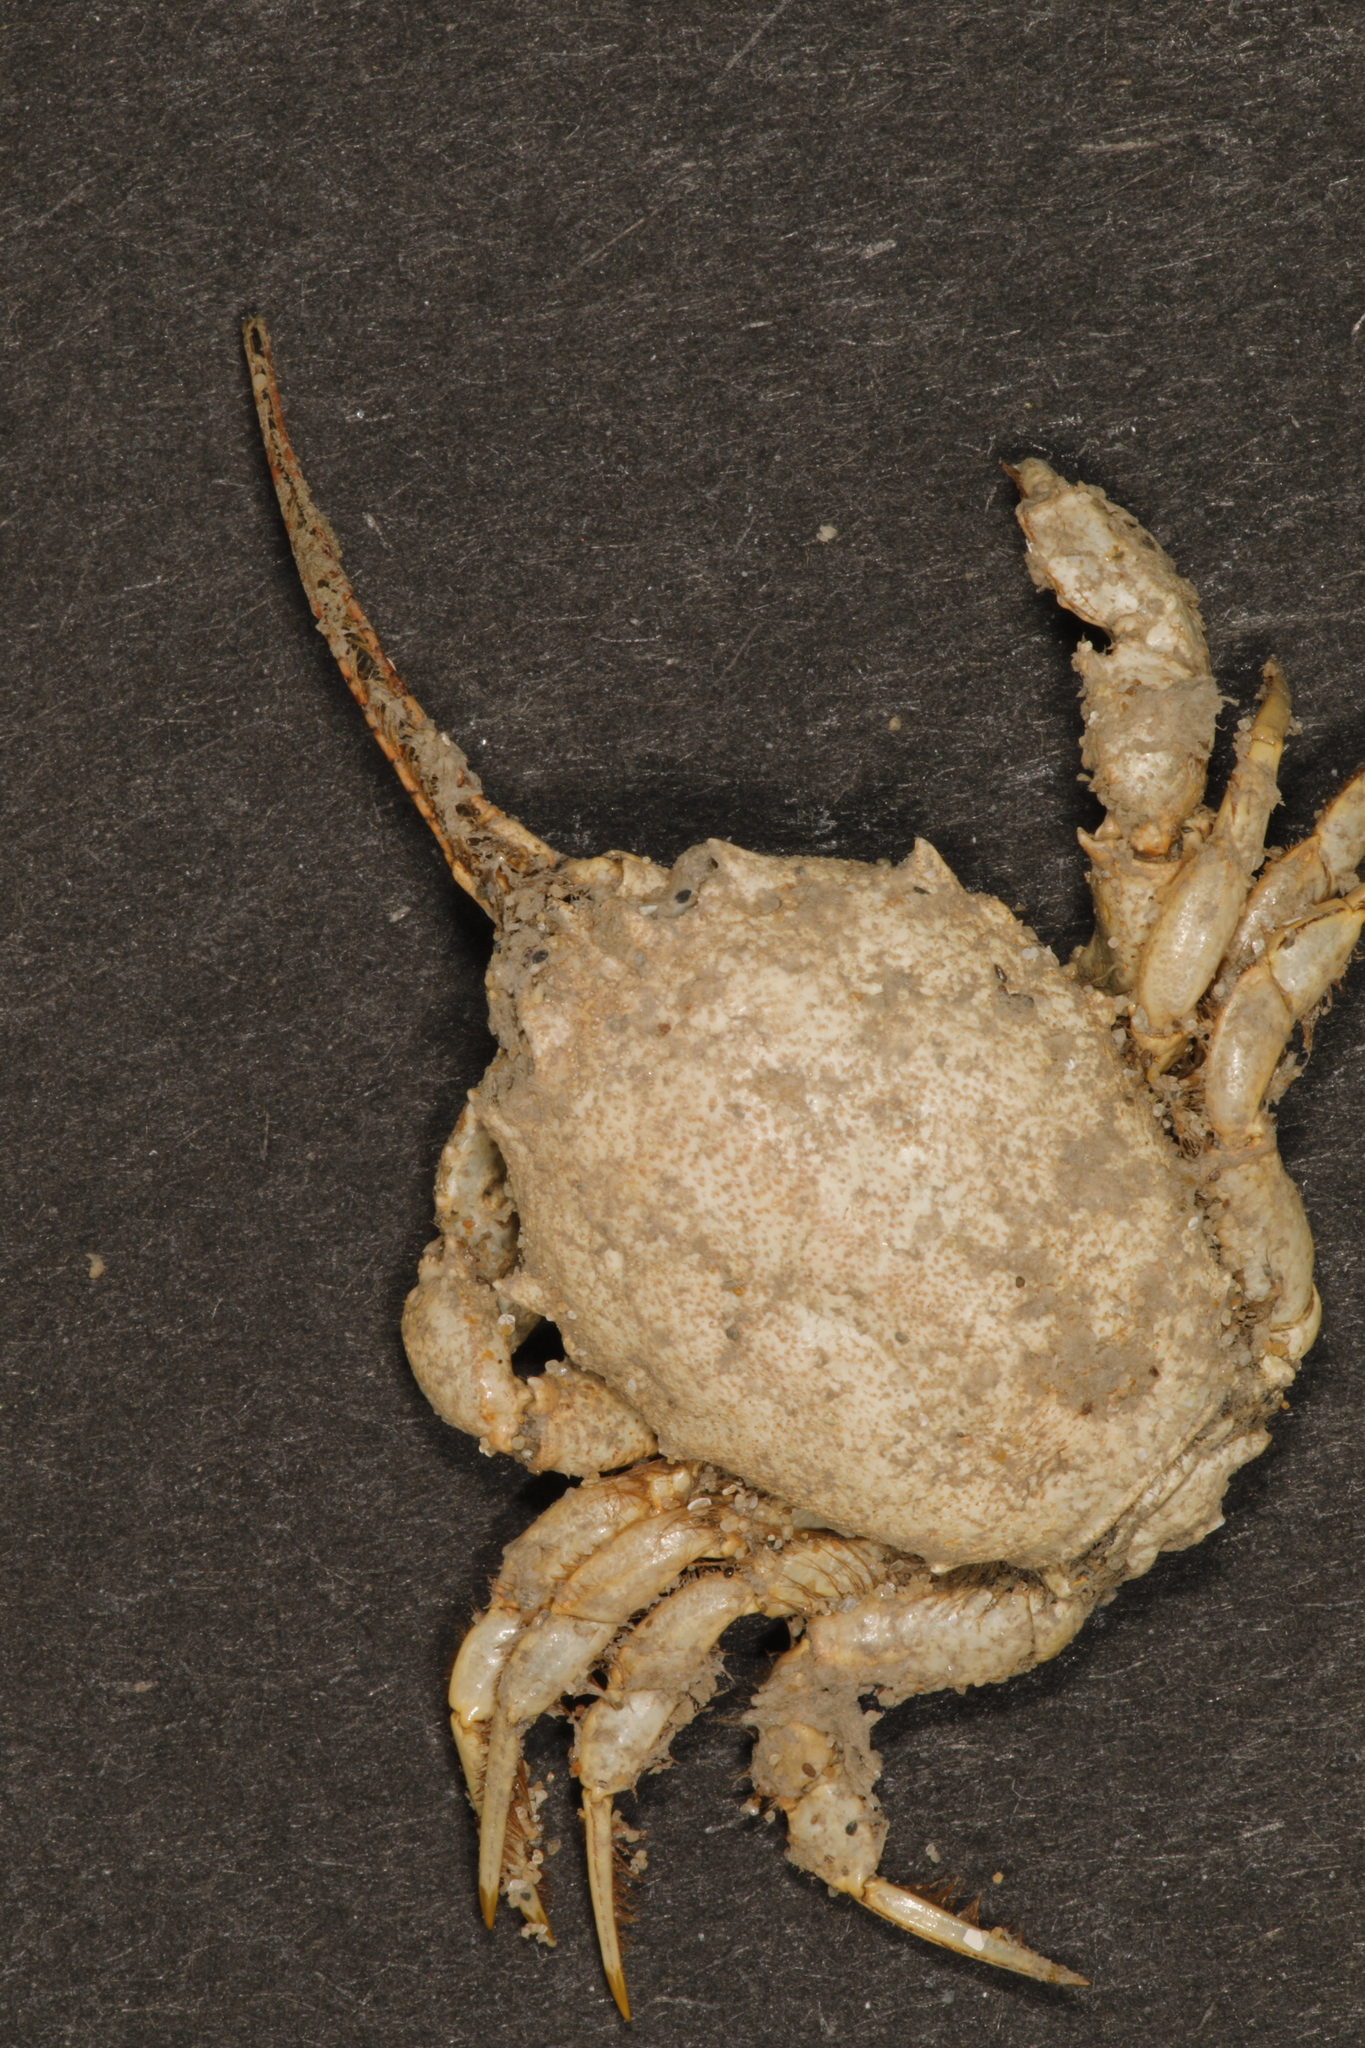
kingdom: Animalia
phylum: Arthropoda
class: Malacostraca
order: Decapoda
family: Corystidae
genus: Corystes
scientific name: Corystes cassivelaunus
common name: Masked crab
